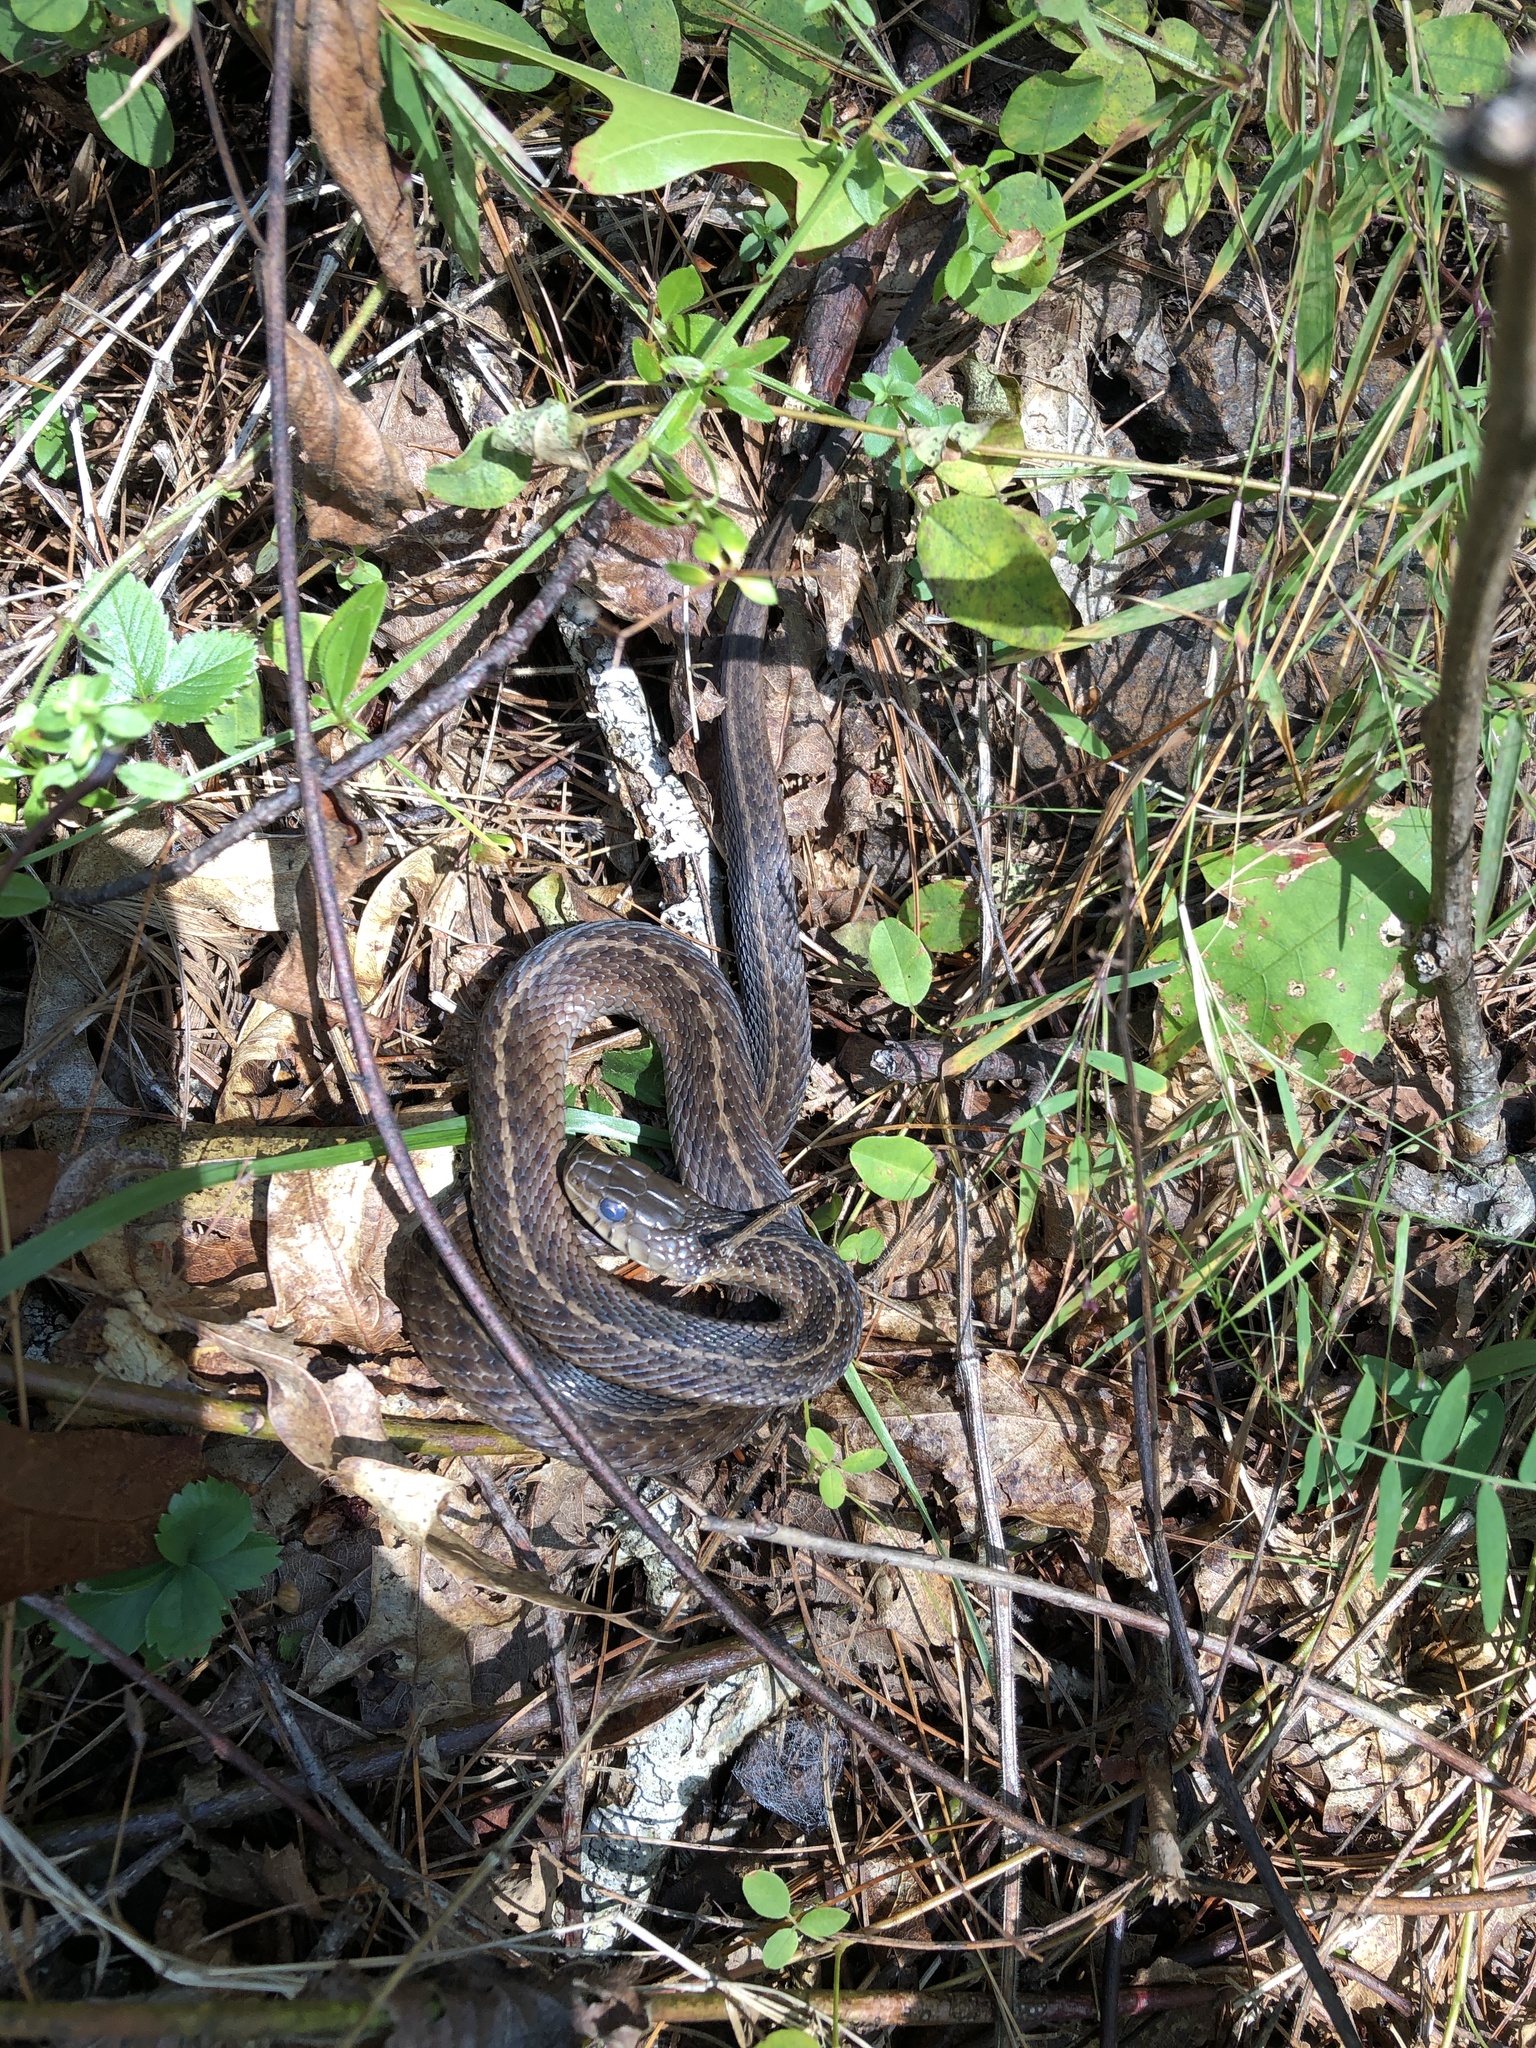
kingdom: Animalia
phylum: Chordata
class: Squamata
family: Colubridae
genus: Thamnophis
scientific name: Thamnophis sirtalis
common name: Common garter snake
